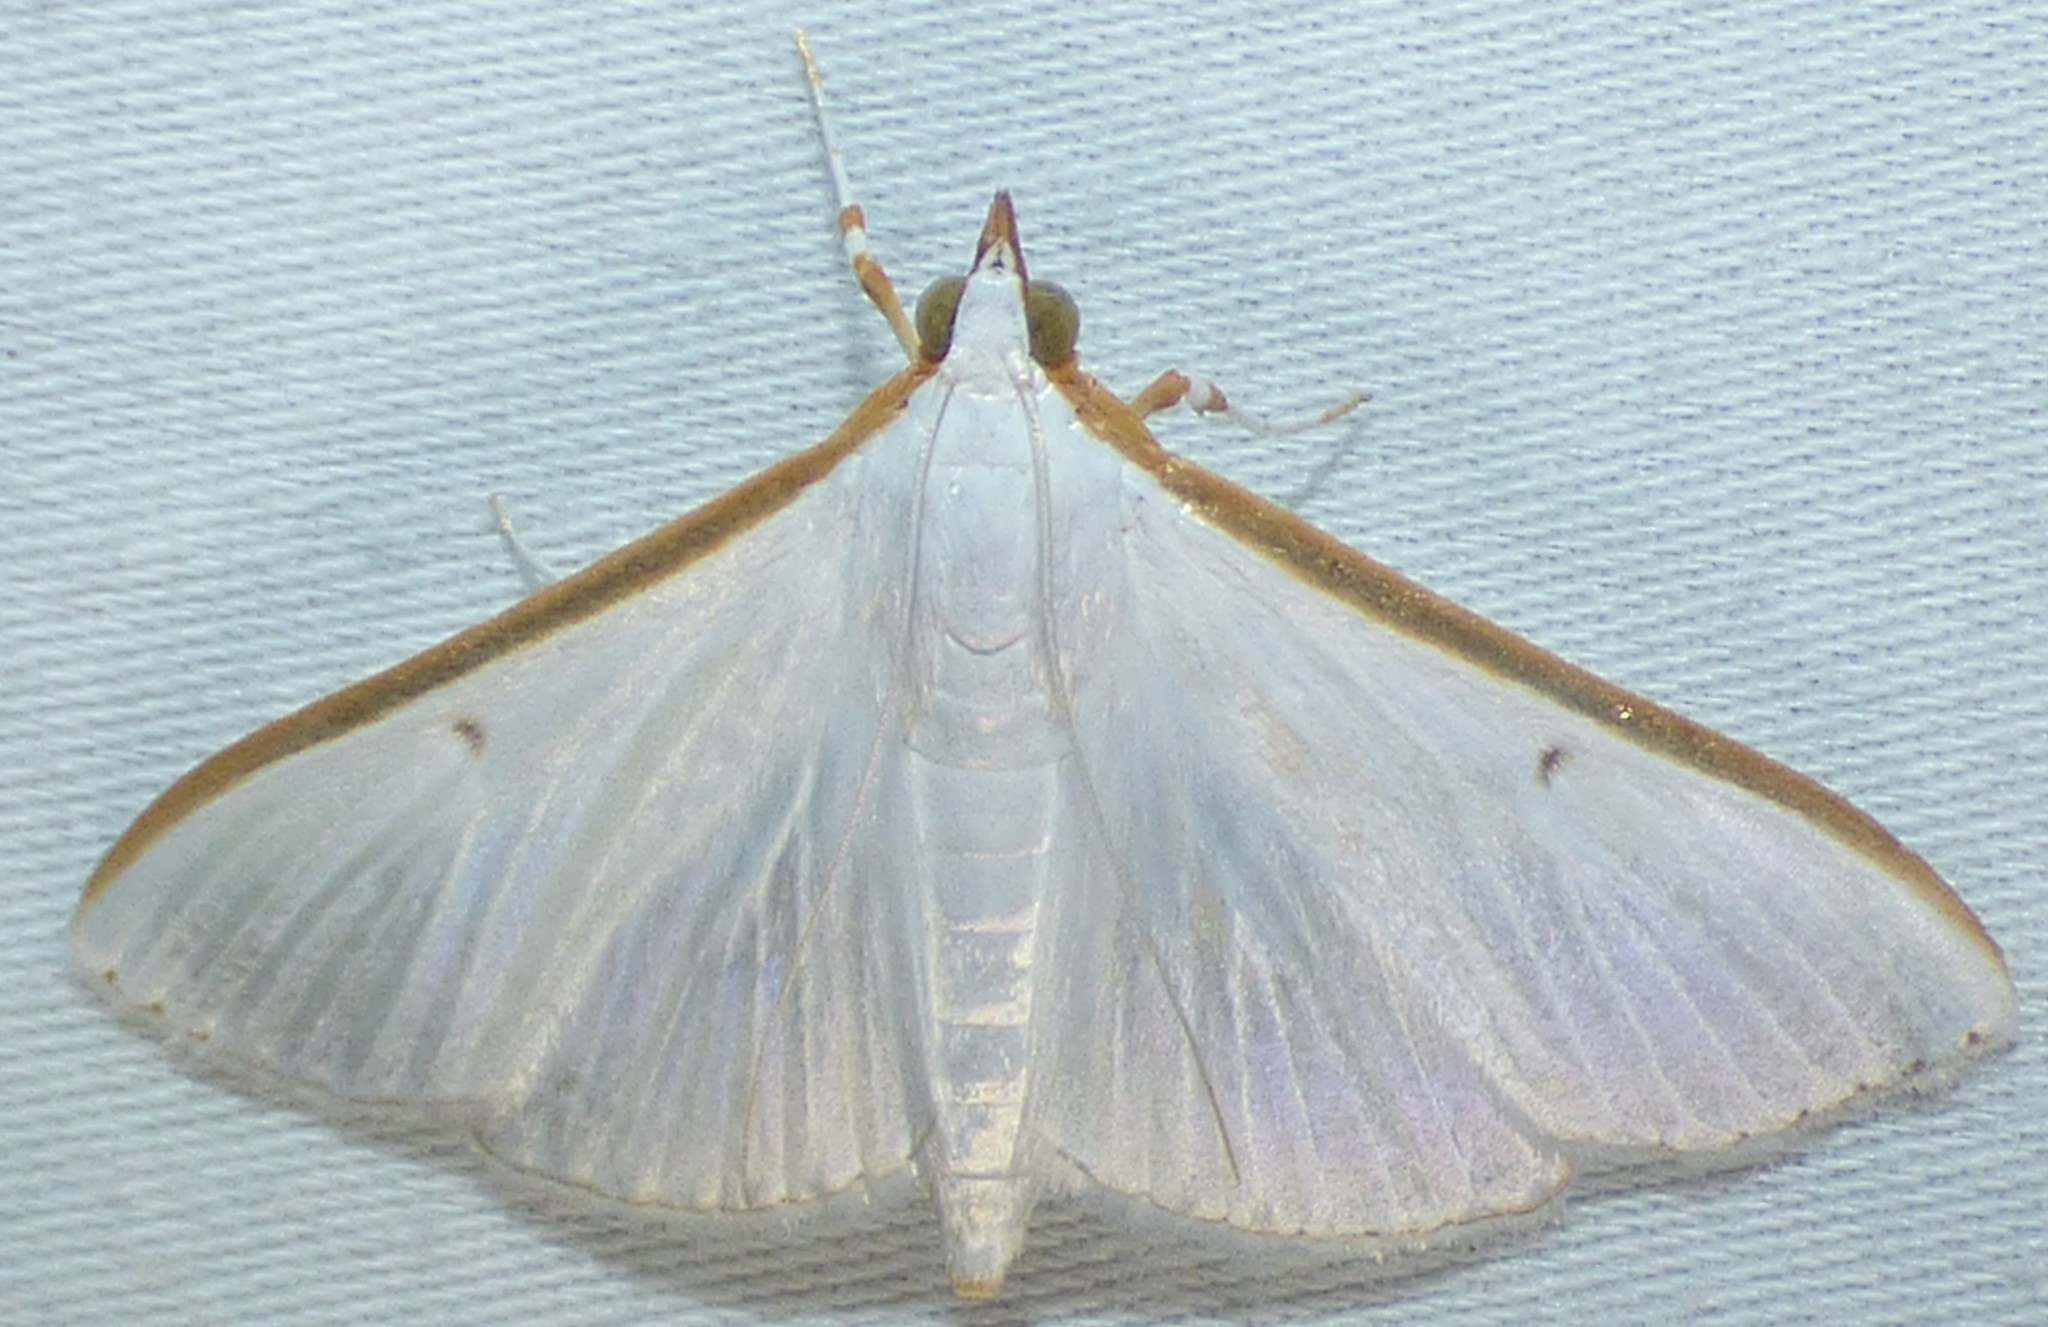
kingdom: Animalia
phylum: Arthropoda
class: Insecta
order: Lepidoptera
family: Crambidae
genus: Diaphania
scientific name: Diaphania costata
